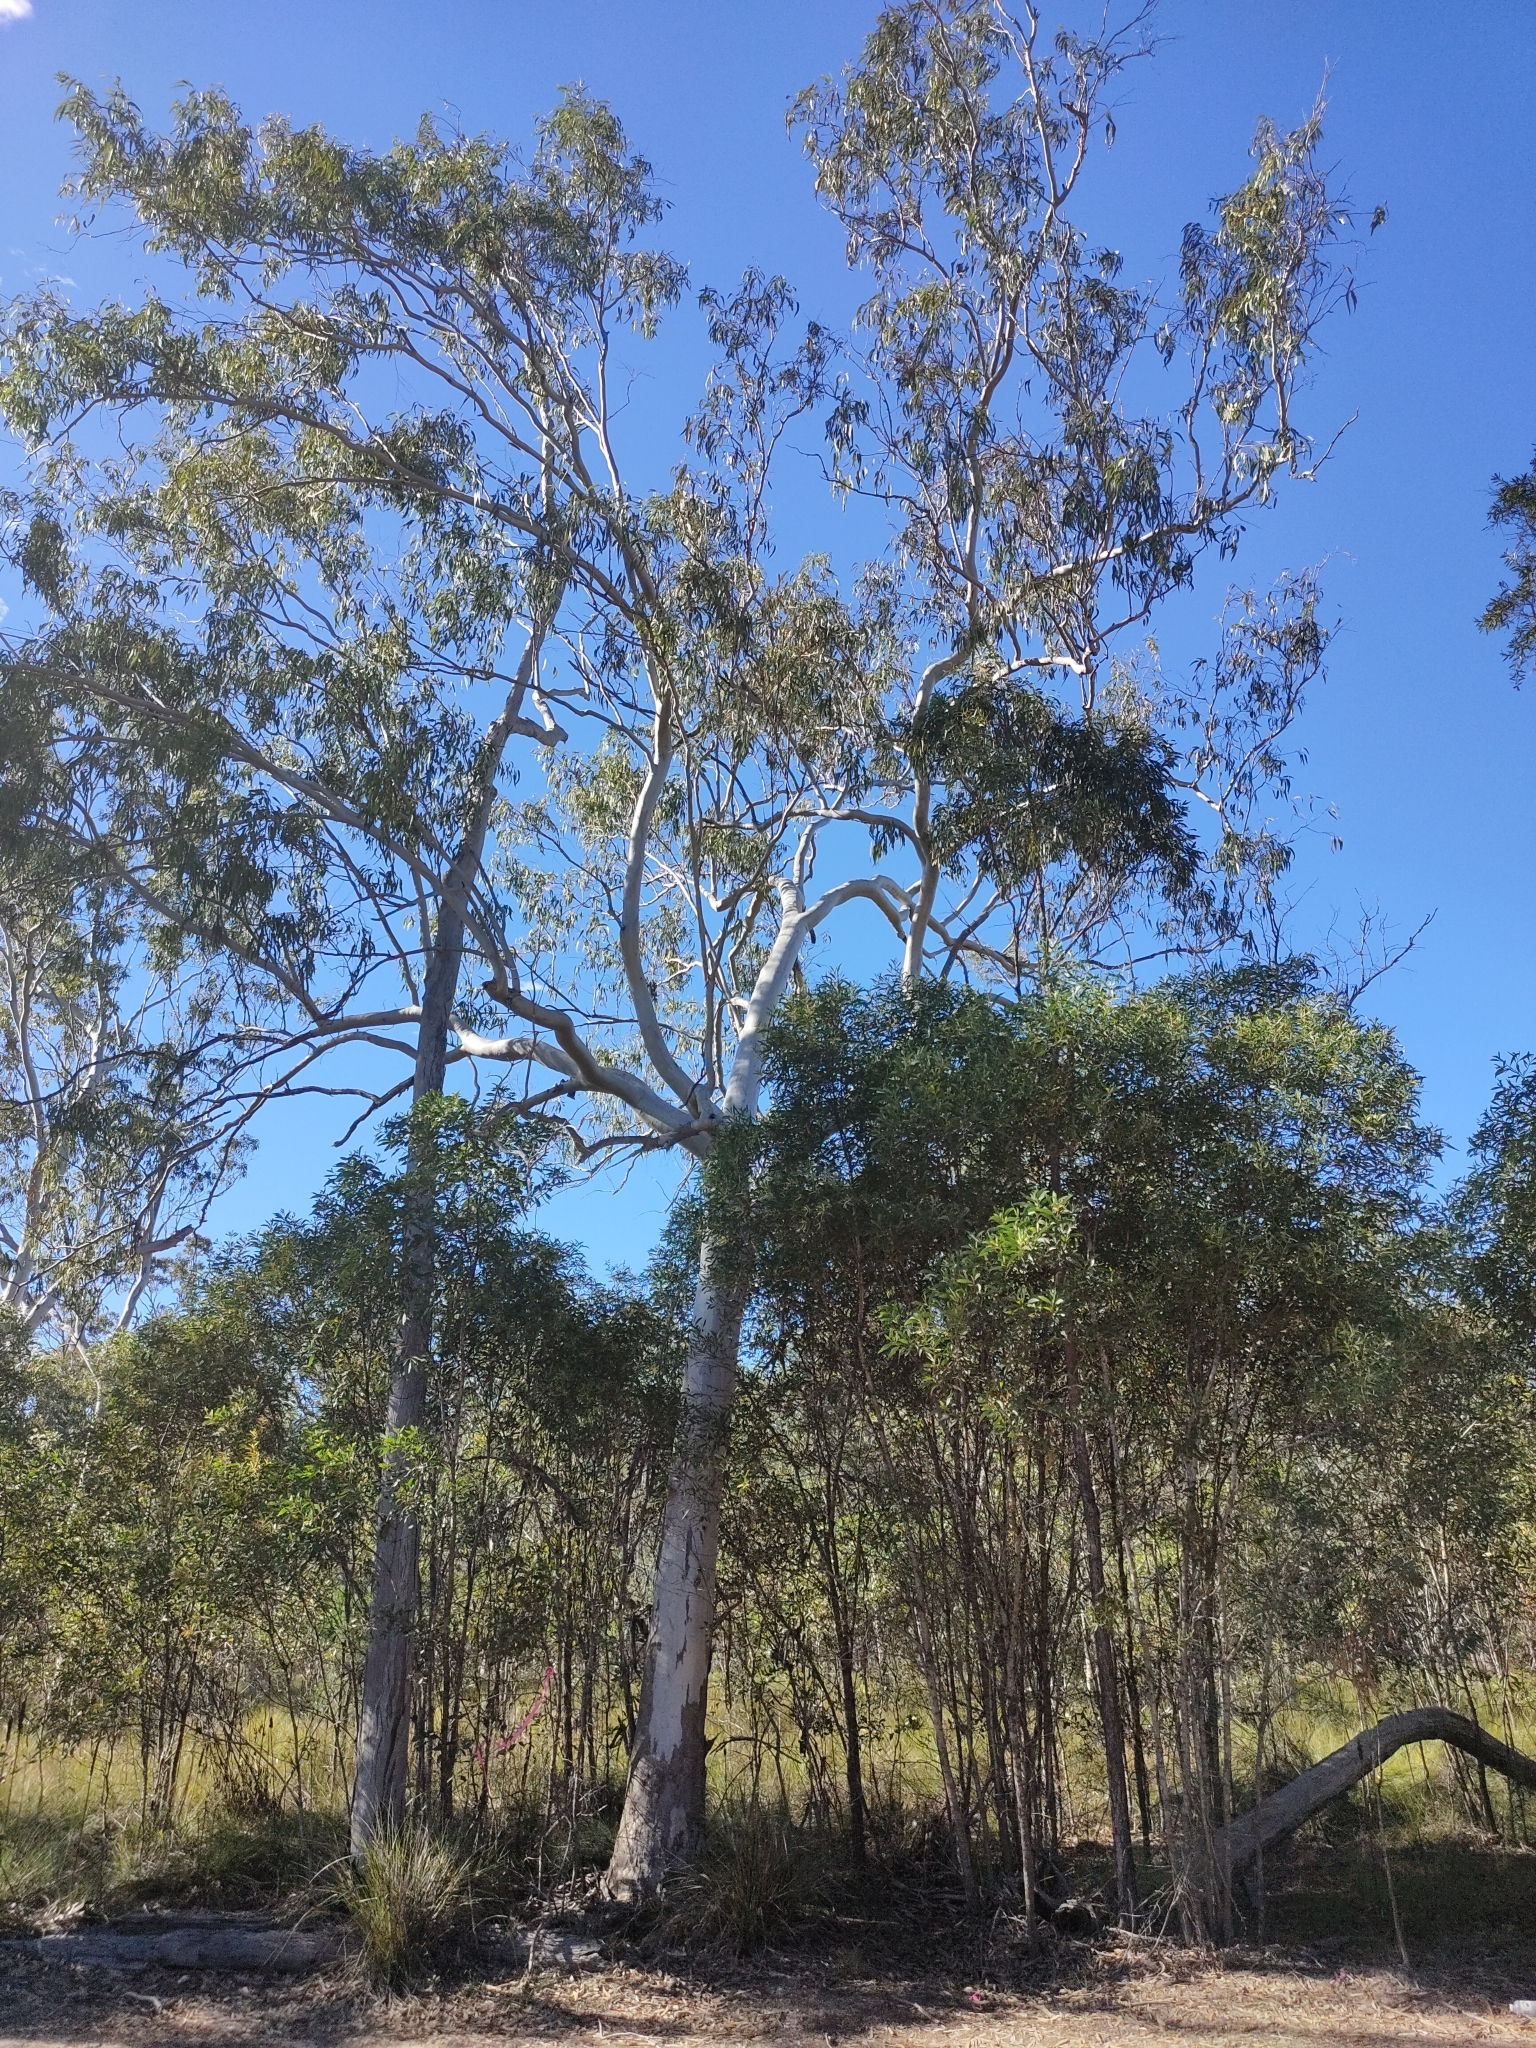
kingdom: Plantae
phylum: Tracheophyta
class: Magnoliopsida
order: Myrtales
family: Myrtaceae
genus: Eucalyptus
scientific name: Eucalyptus tereticornis
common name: Forest redgum
